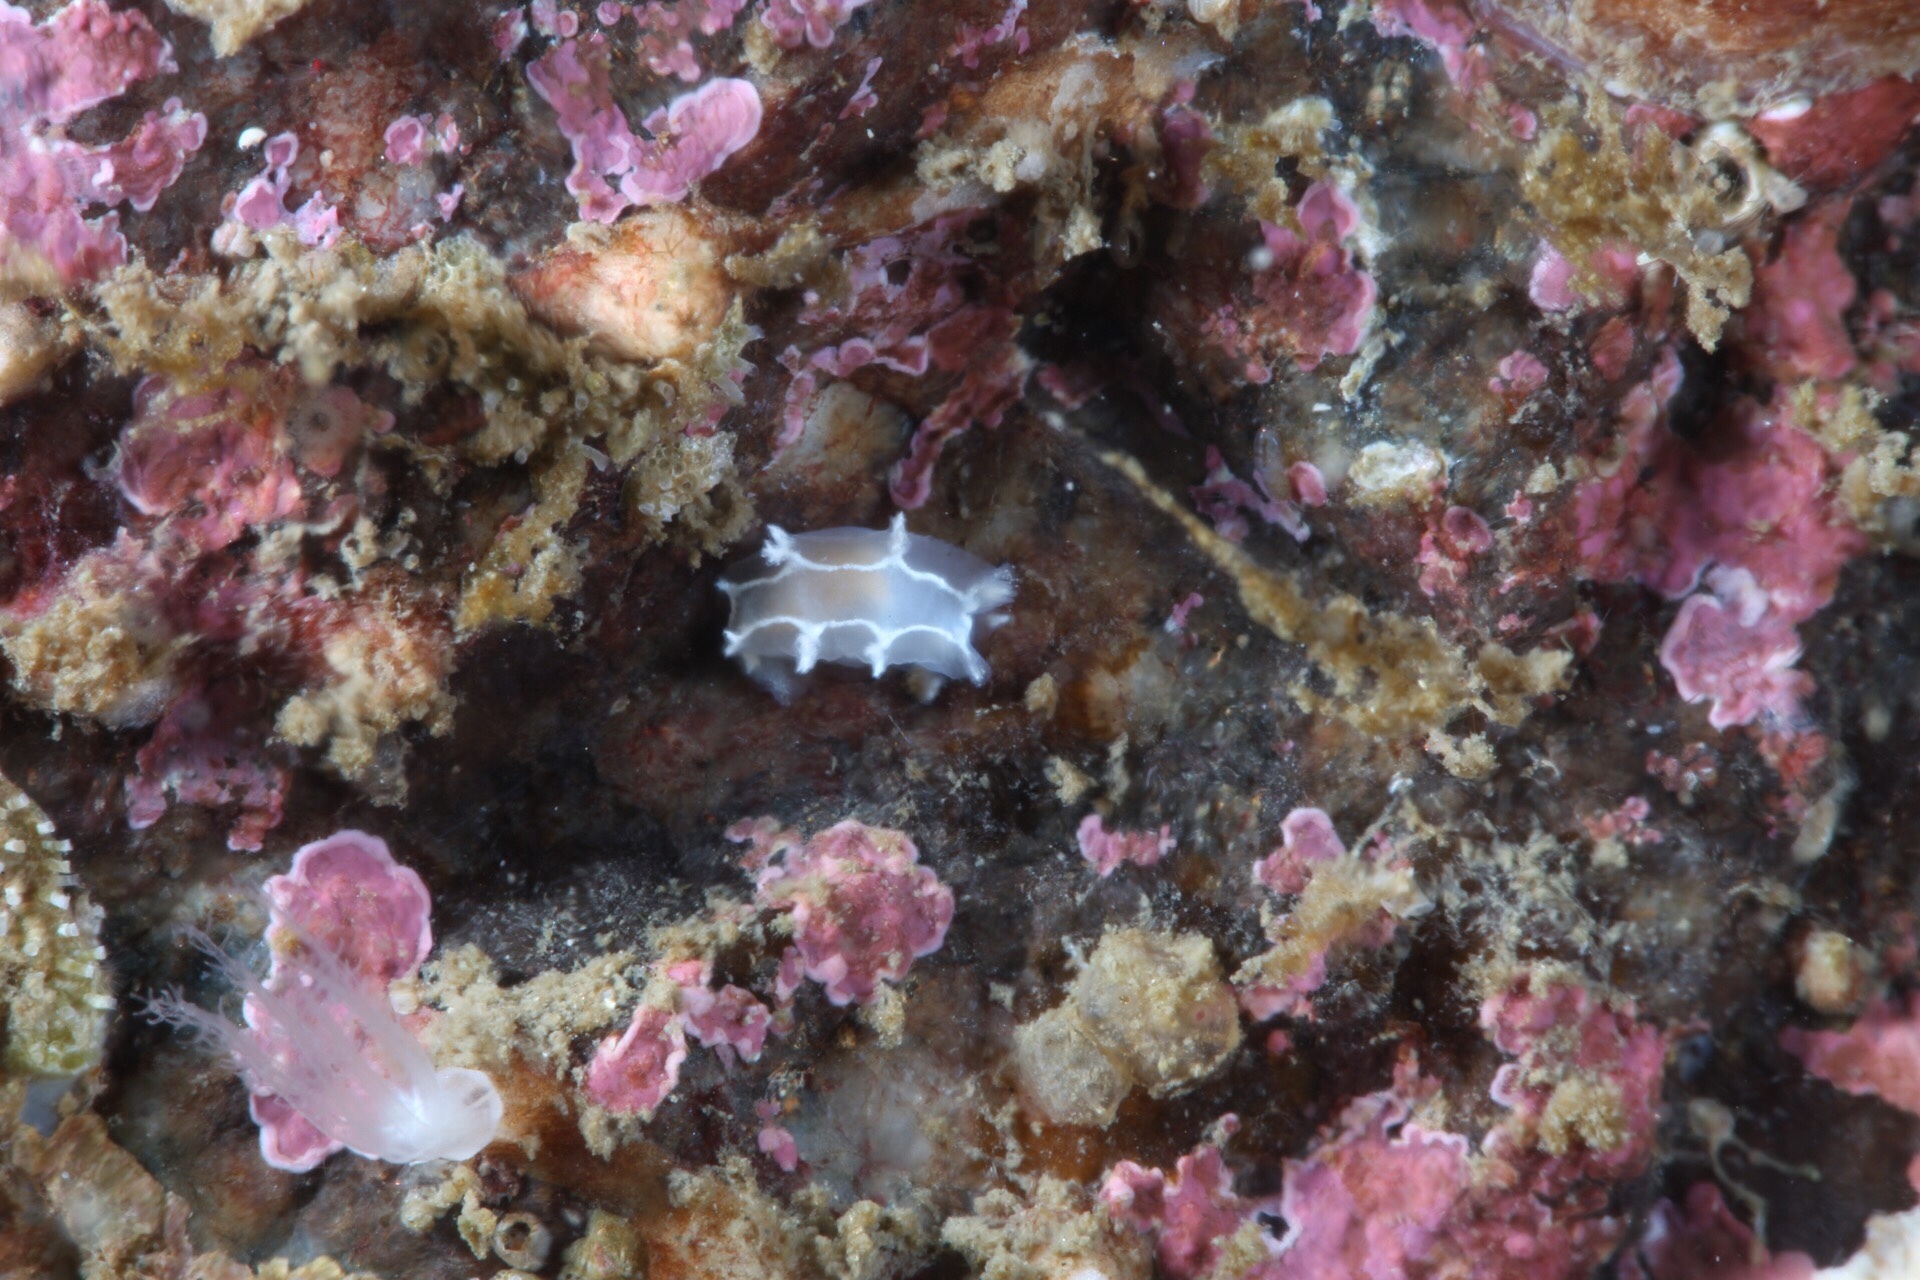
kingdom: Animalia
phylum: Mollusca
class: Gastropoda
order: Nudibranchia
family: Tritoniidae
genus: Duvaucelia
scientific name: Duvaucelia lineata
